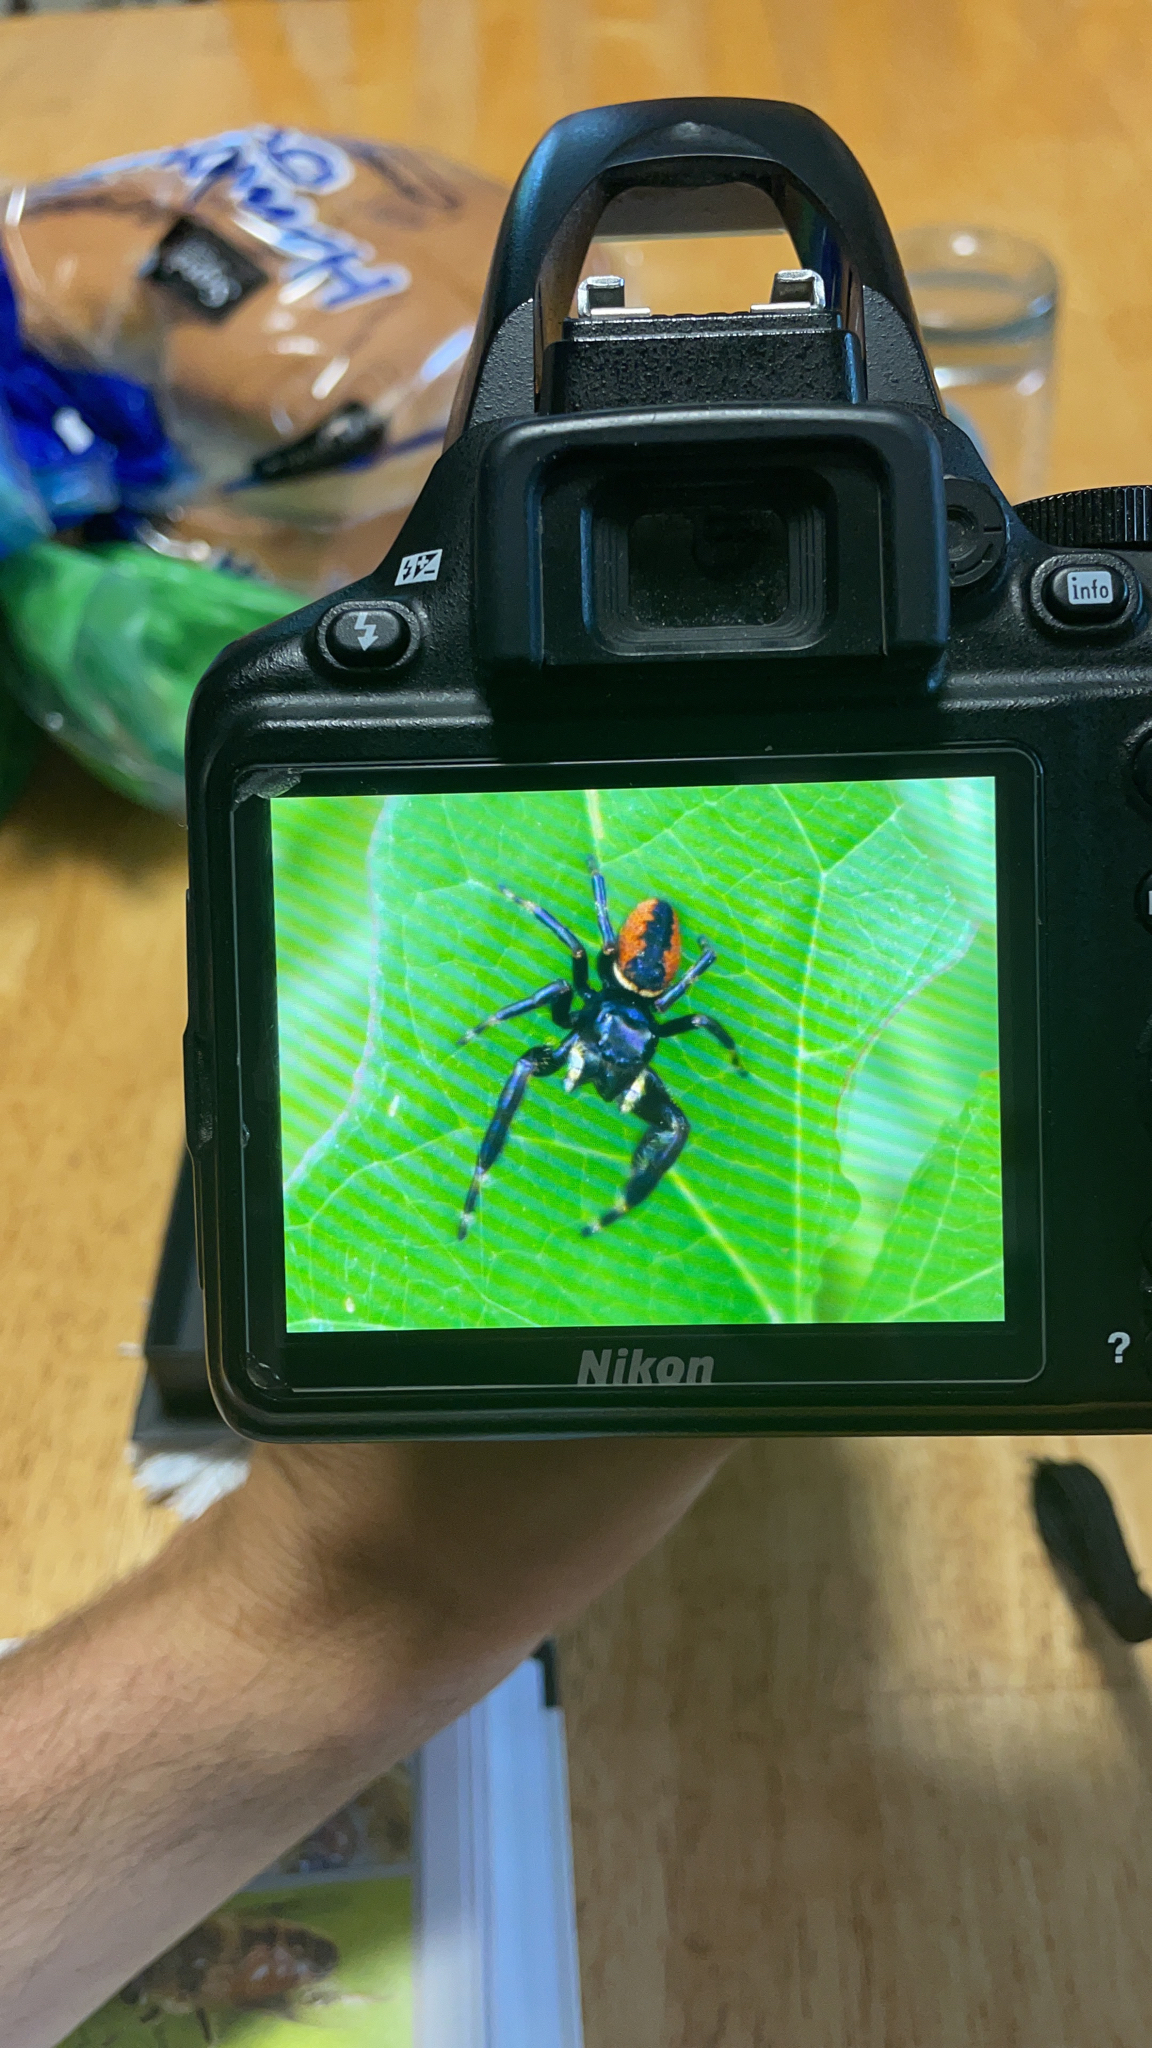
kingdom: Animalia
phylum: Arthropoda
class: Arachnida
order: Araneae
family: Salticidae
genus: Phidippus
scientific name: Phidippus clarus
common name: Brilliant jumping spider
